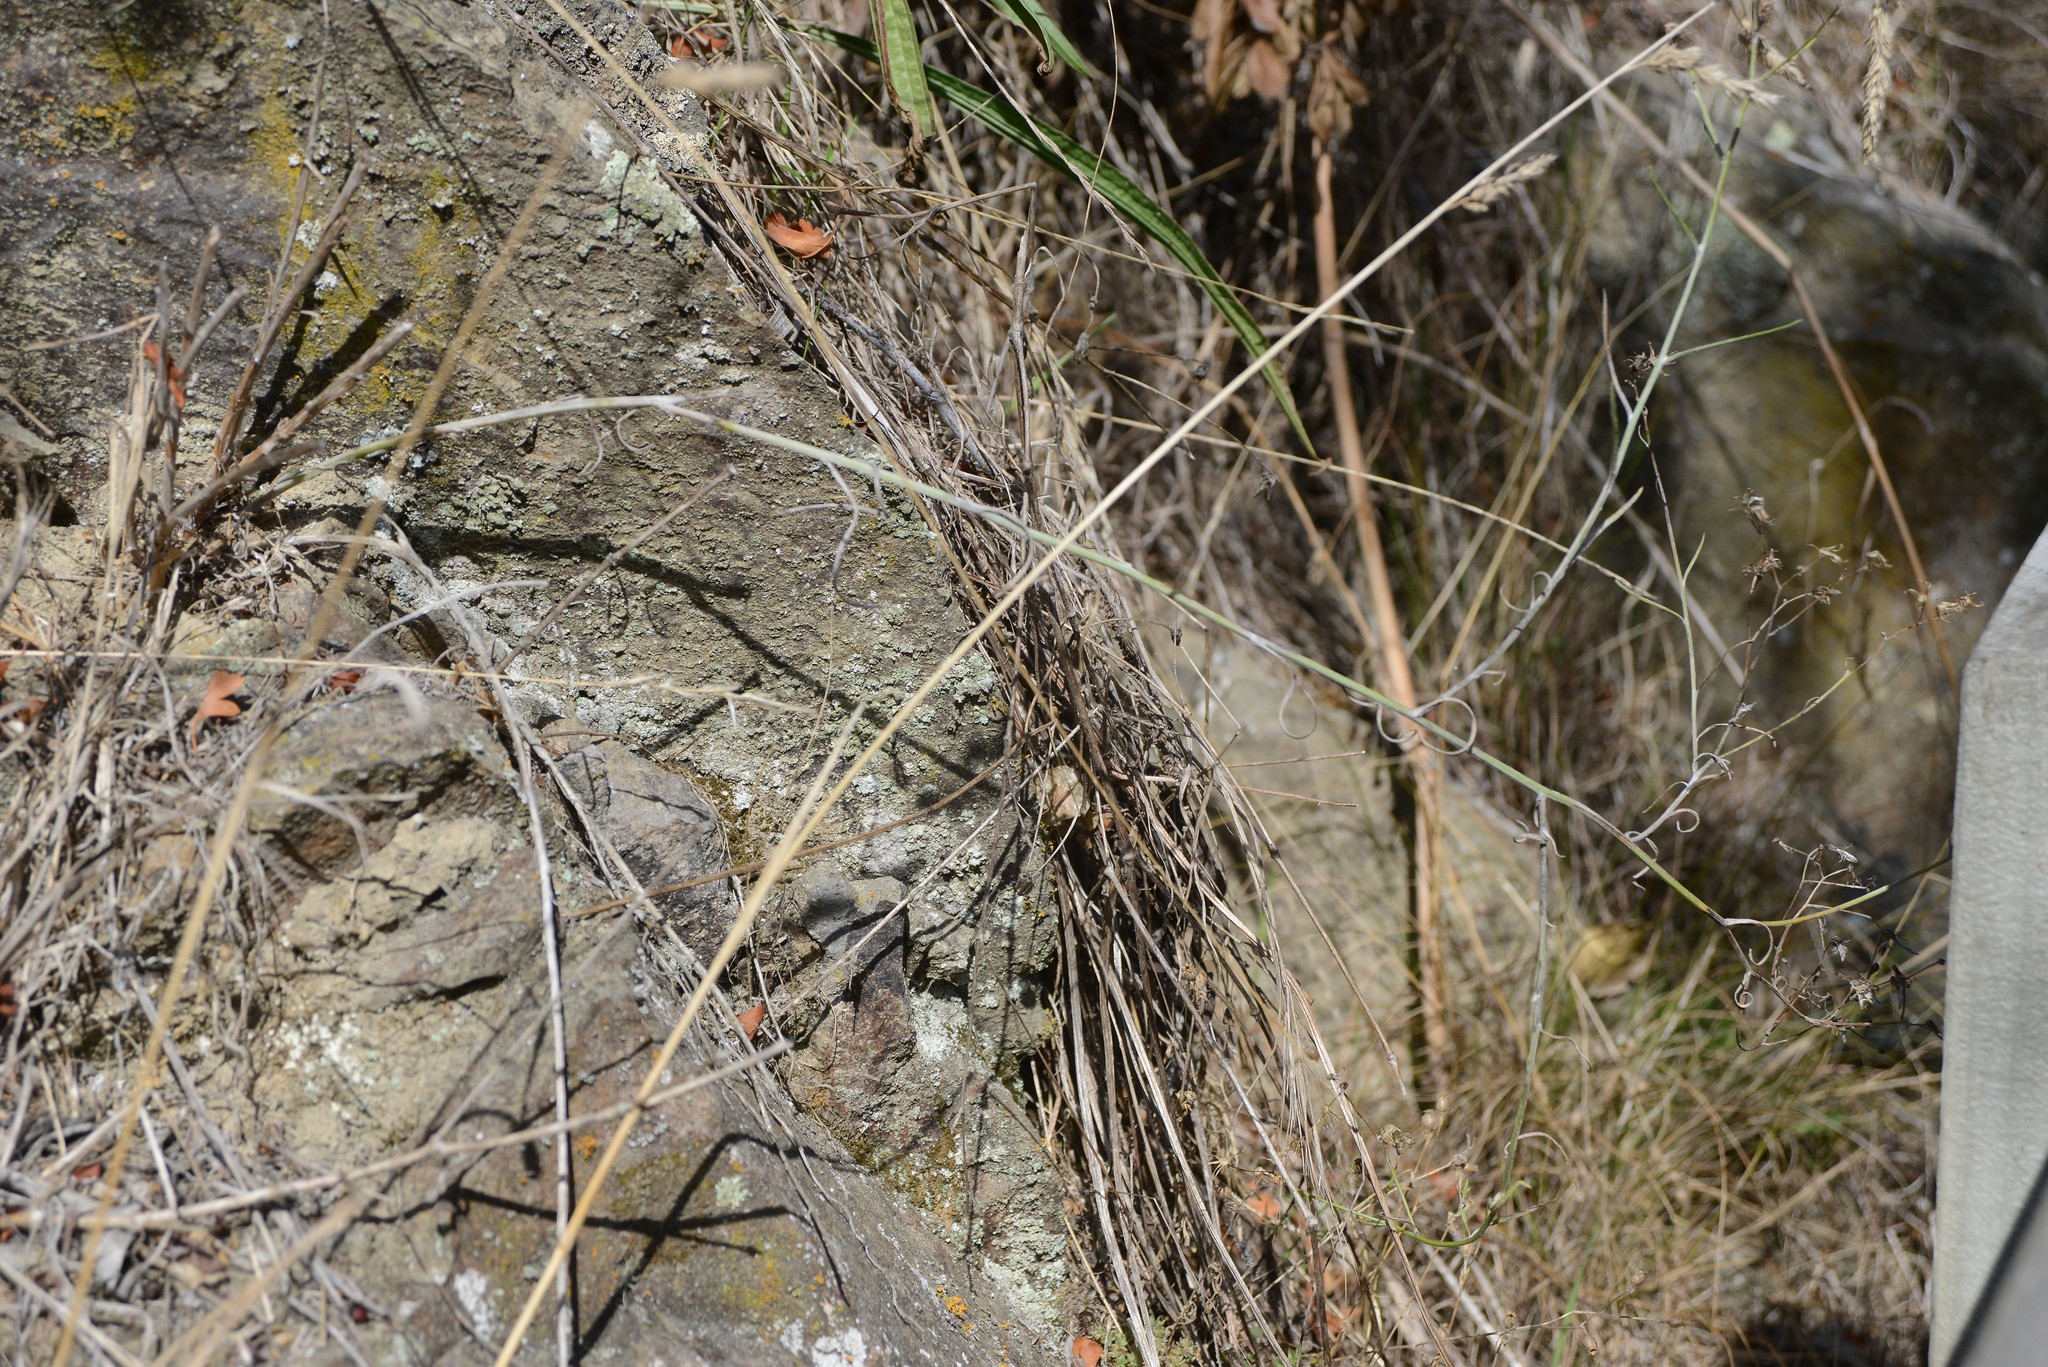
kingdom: Plantae
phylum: Tracheophyta
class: Magnoliopsida
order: Asterales
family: Asteraceae
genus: Senecio
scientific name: Senecio quadridentatus
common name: Cotton fireweed
